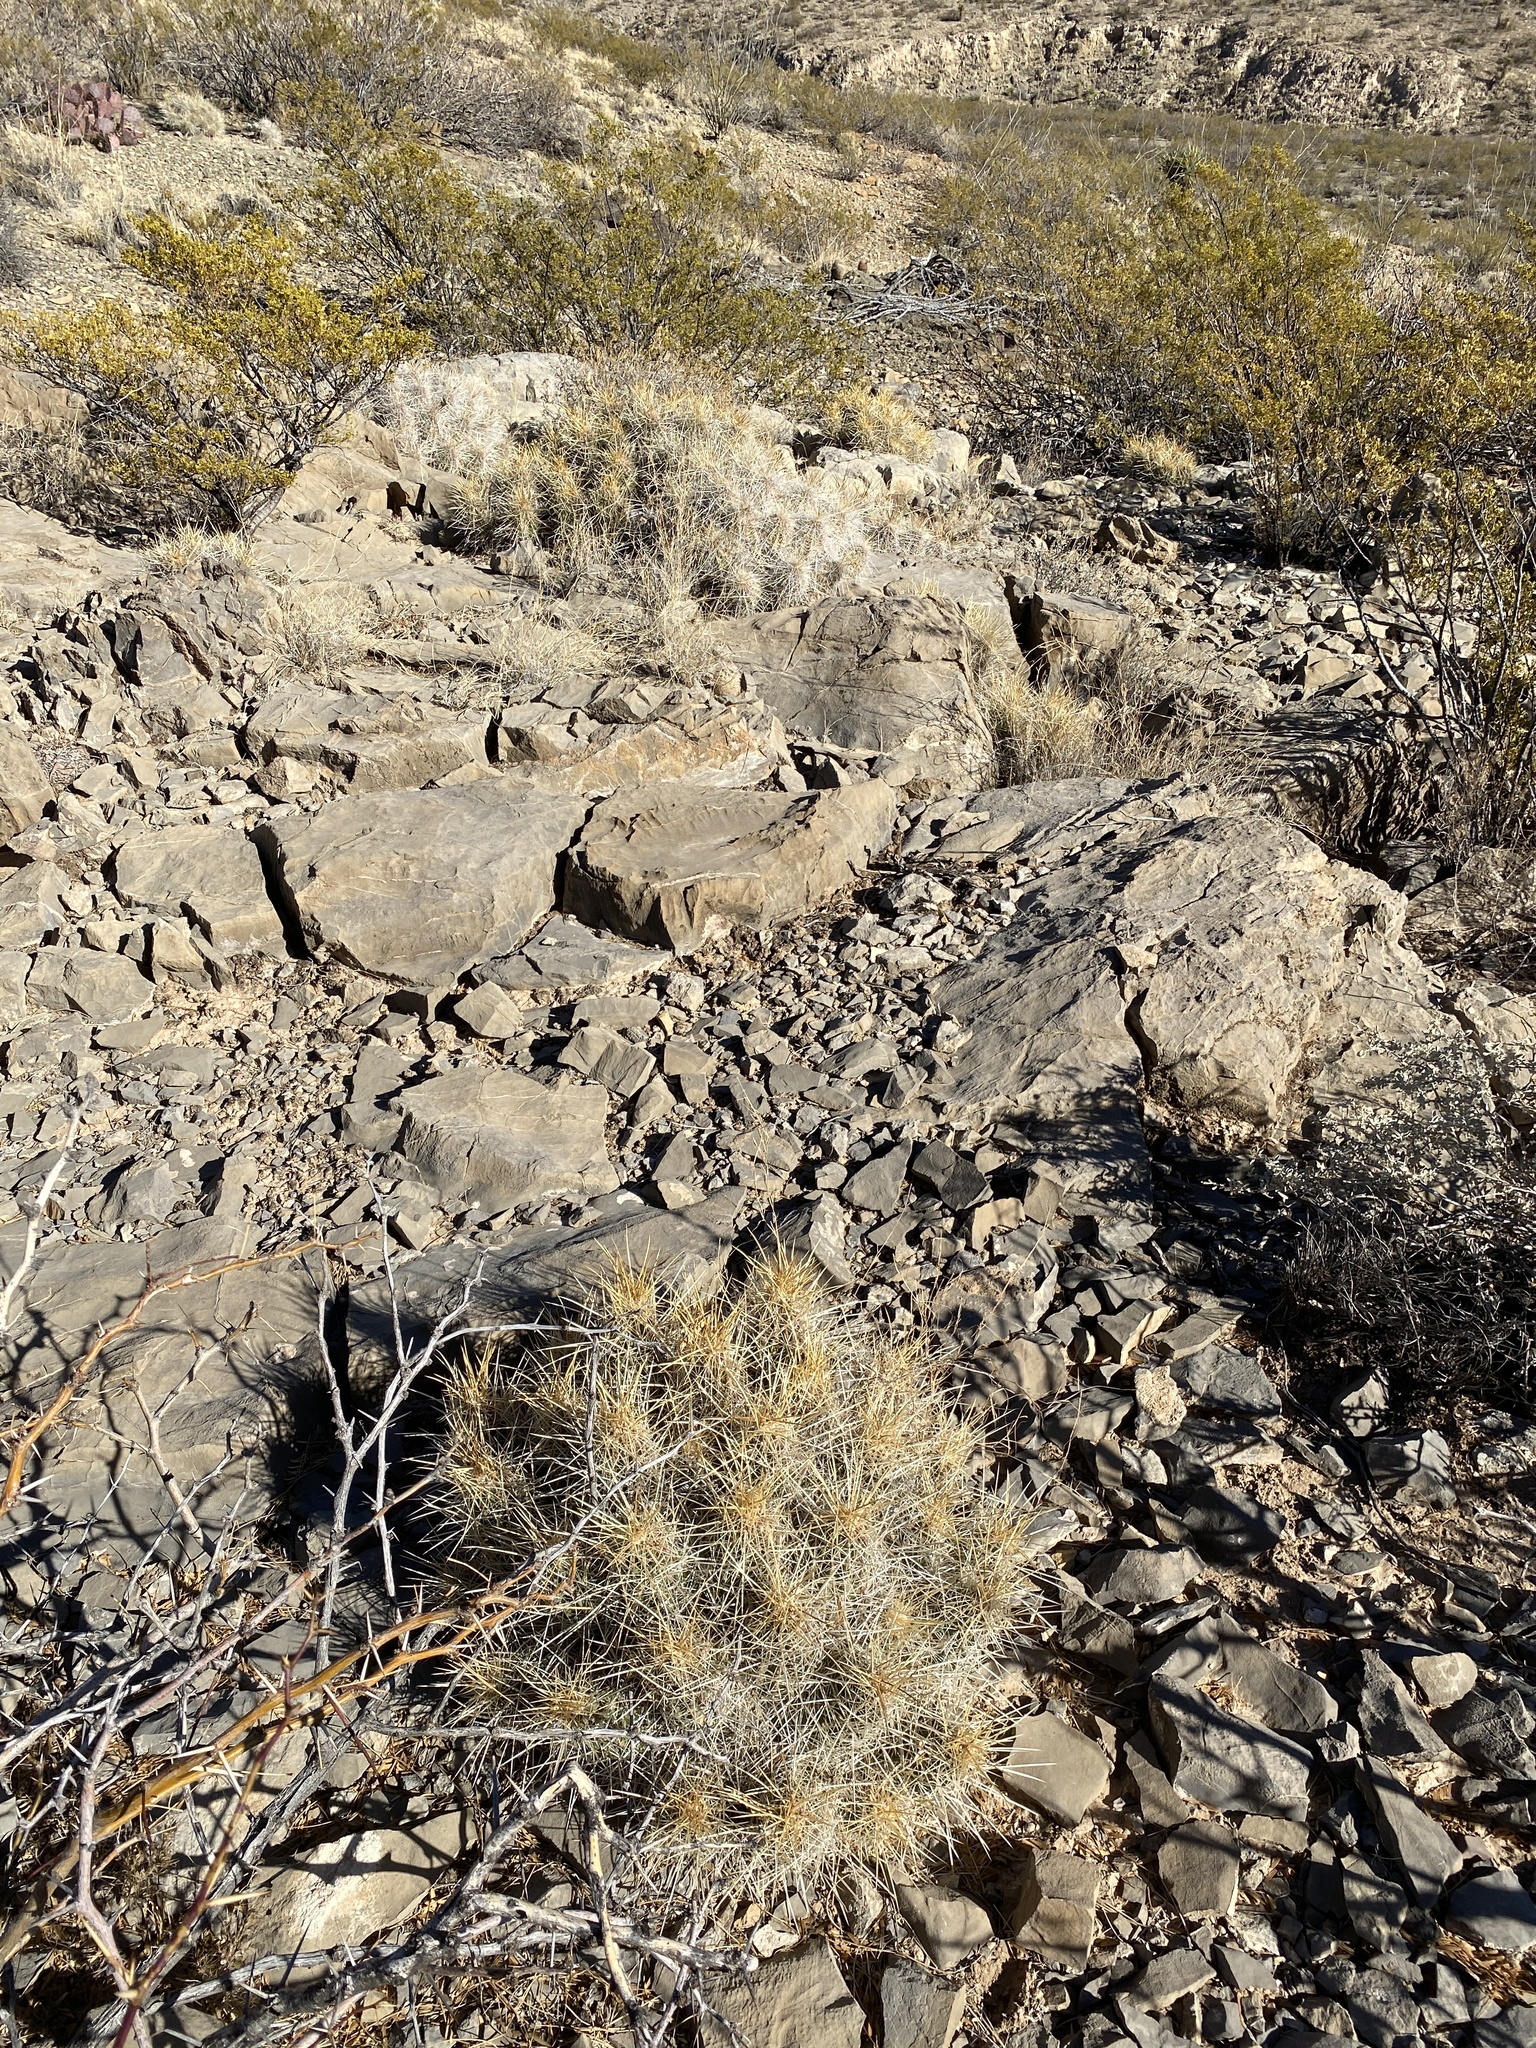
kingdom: Plantae
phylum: Tracheophyta
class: Magnoliopsida
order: Caryophyllales
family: Cactaceae
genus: Echinocereus
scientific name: Echinocereus stramineus
